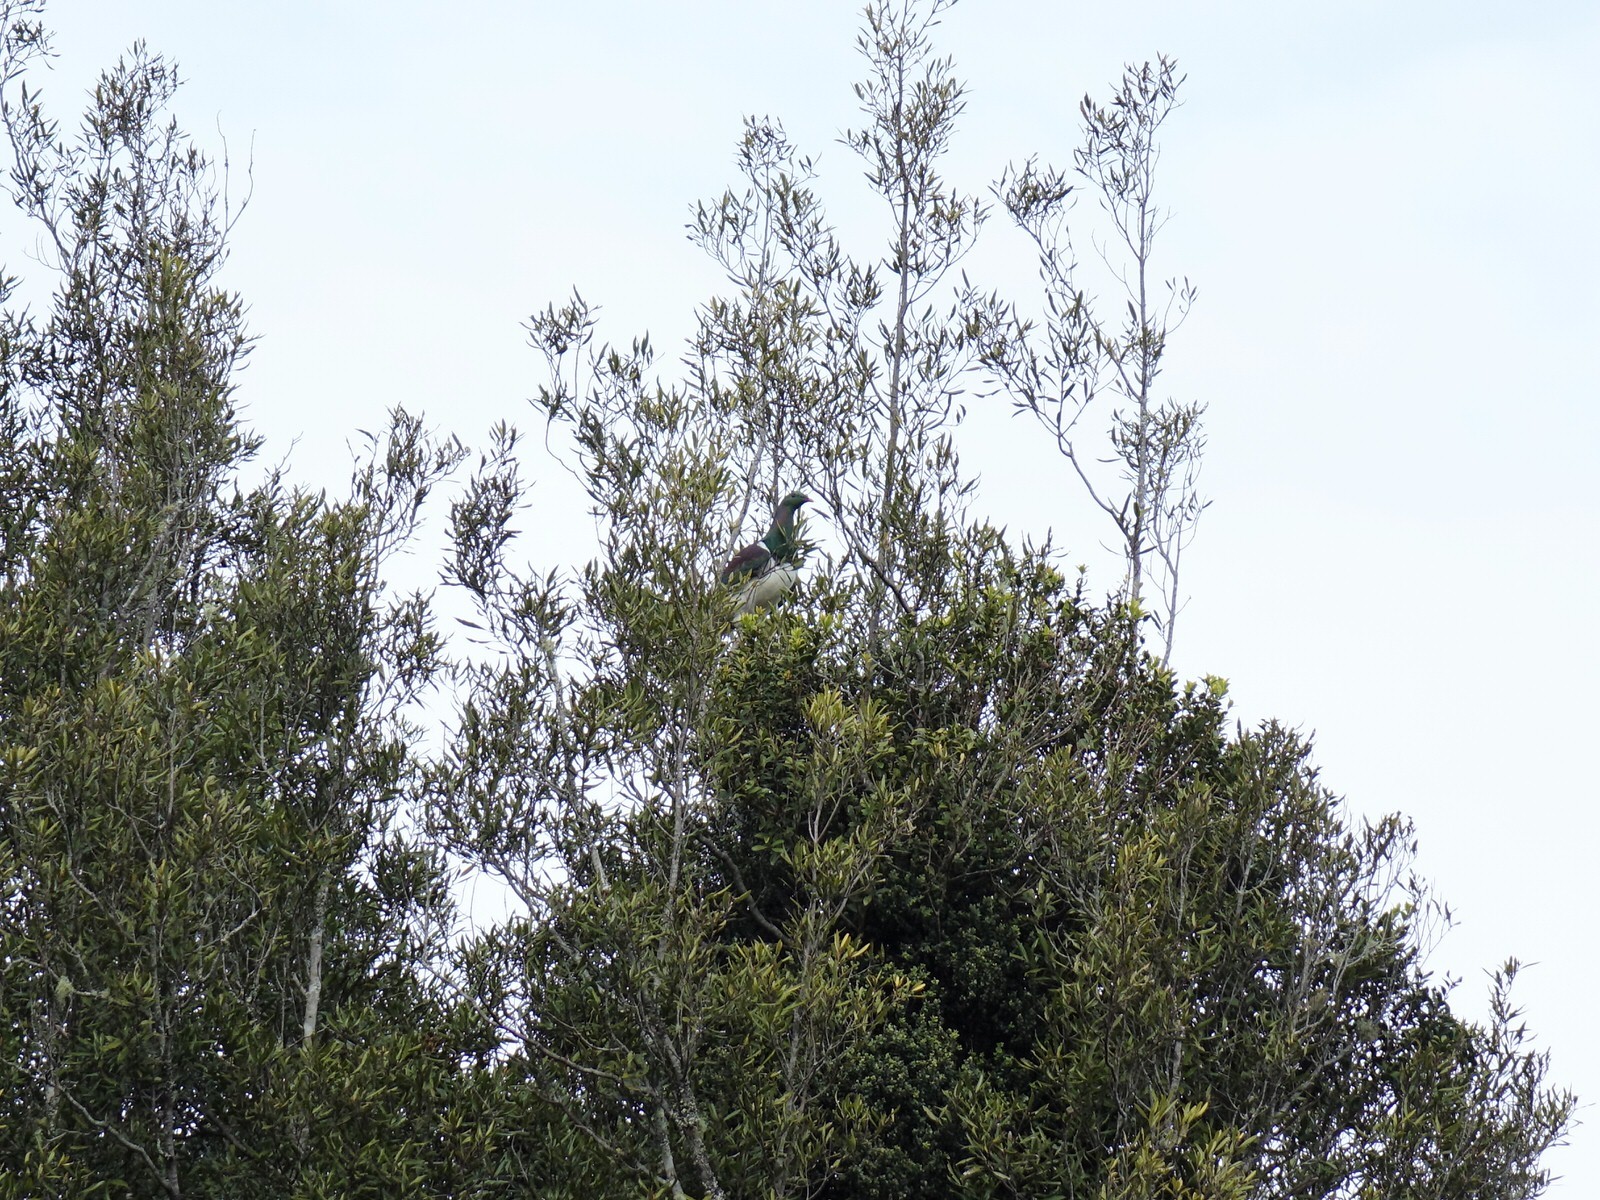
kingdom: Animalia
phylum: Chordata
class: Aves
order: Columbiformes
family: Columbidae
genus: Hemiphaga
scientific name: Hemiphaga novaeseelandiae
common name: New zealand pigeon
